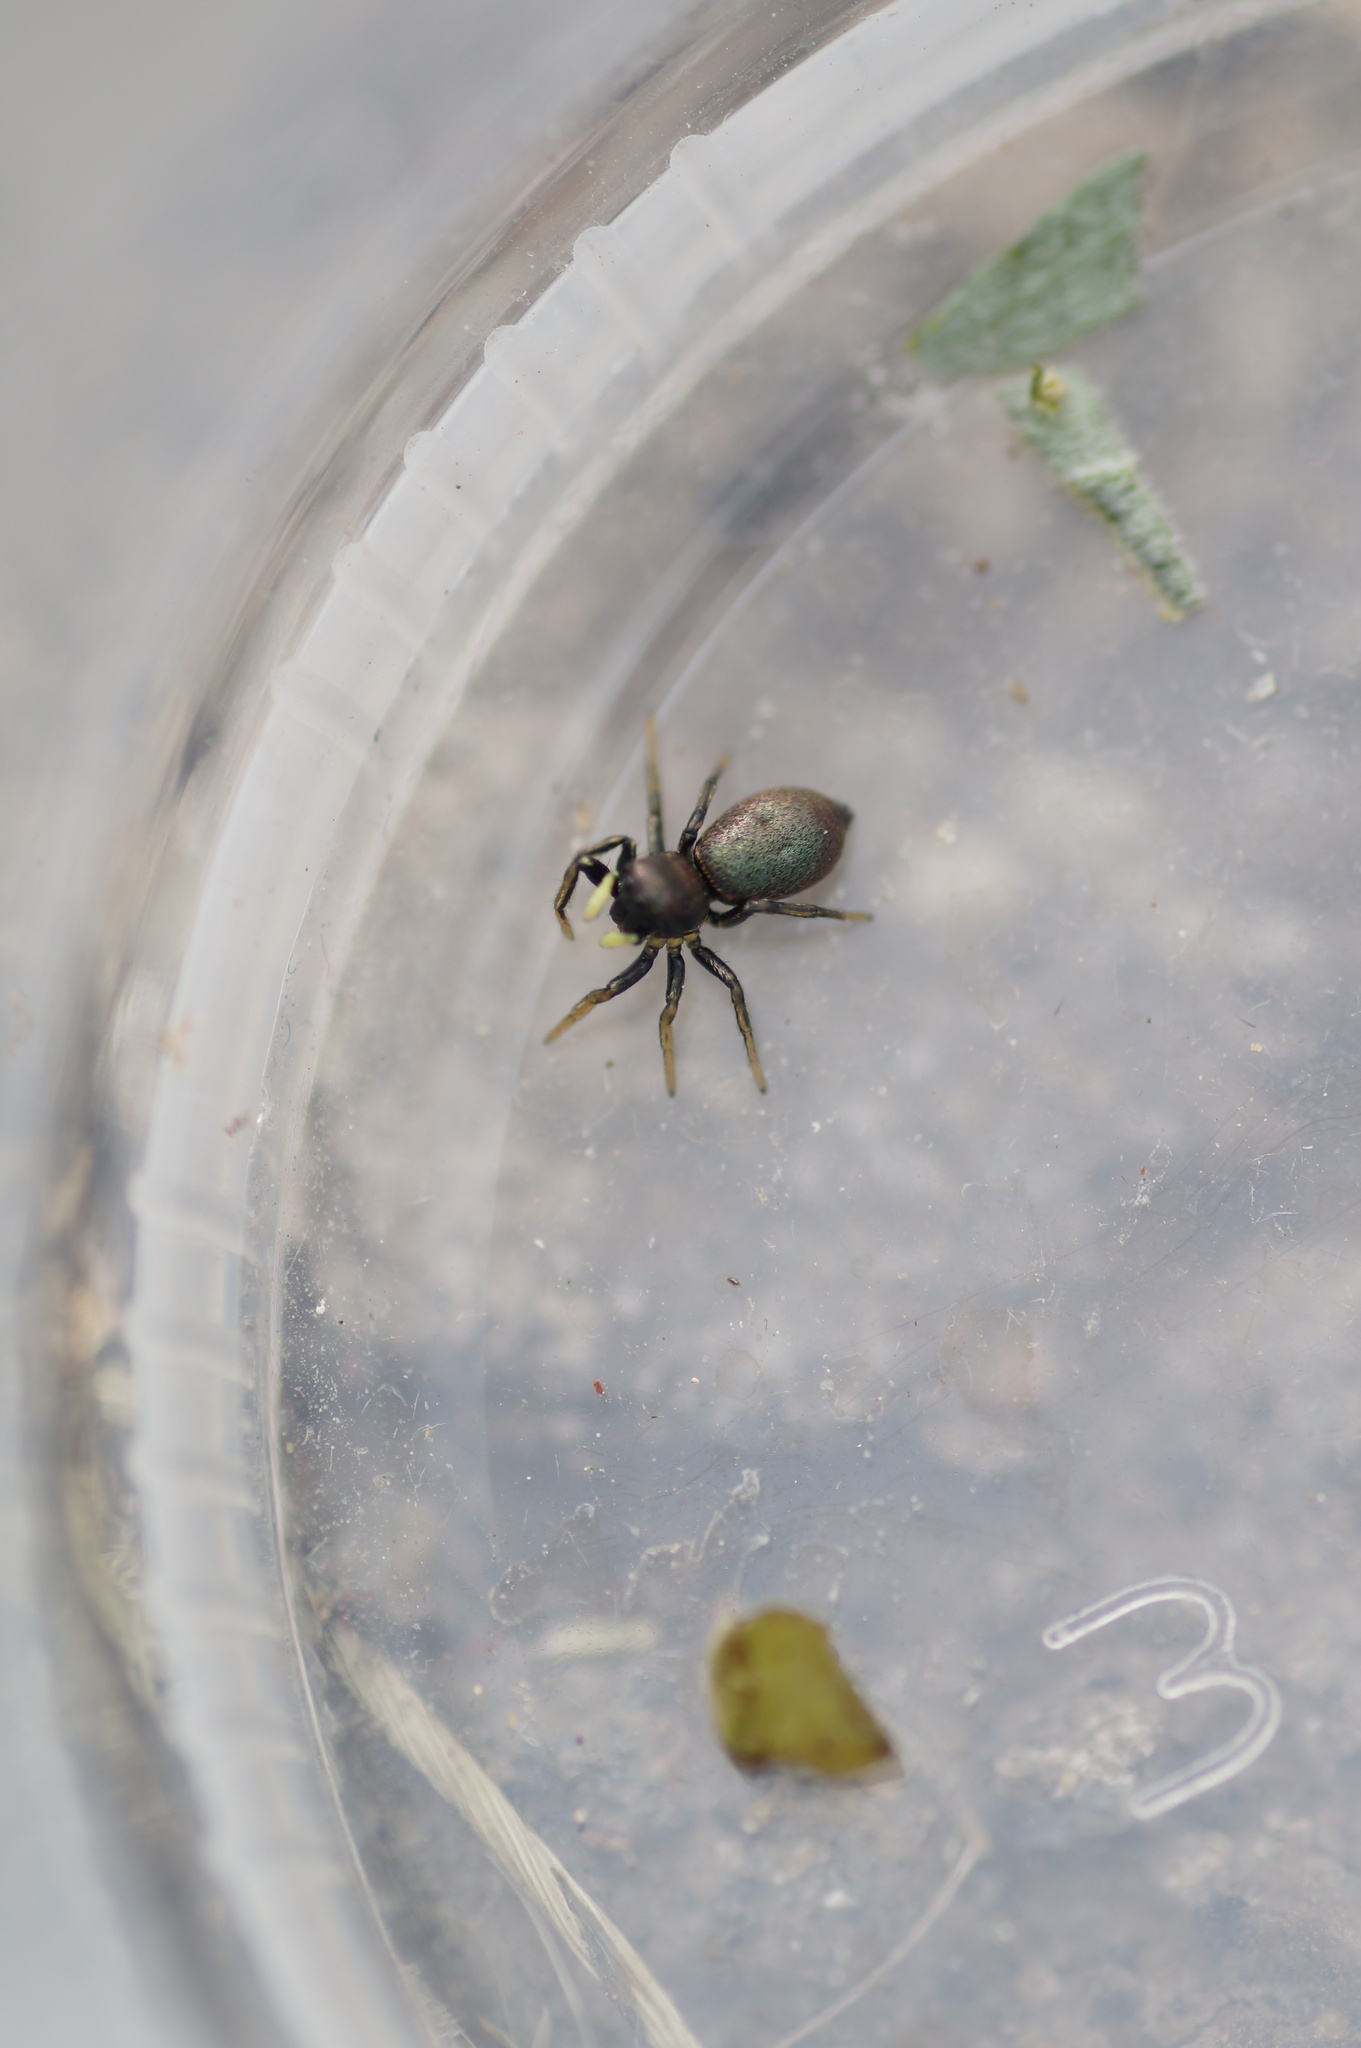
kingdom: Animalia
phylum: Arthropoda
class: Arachnida
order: Araneae
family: Salticidae
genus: Heliophanus
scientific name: Heliophanus auratus
